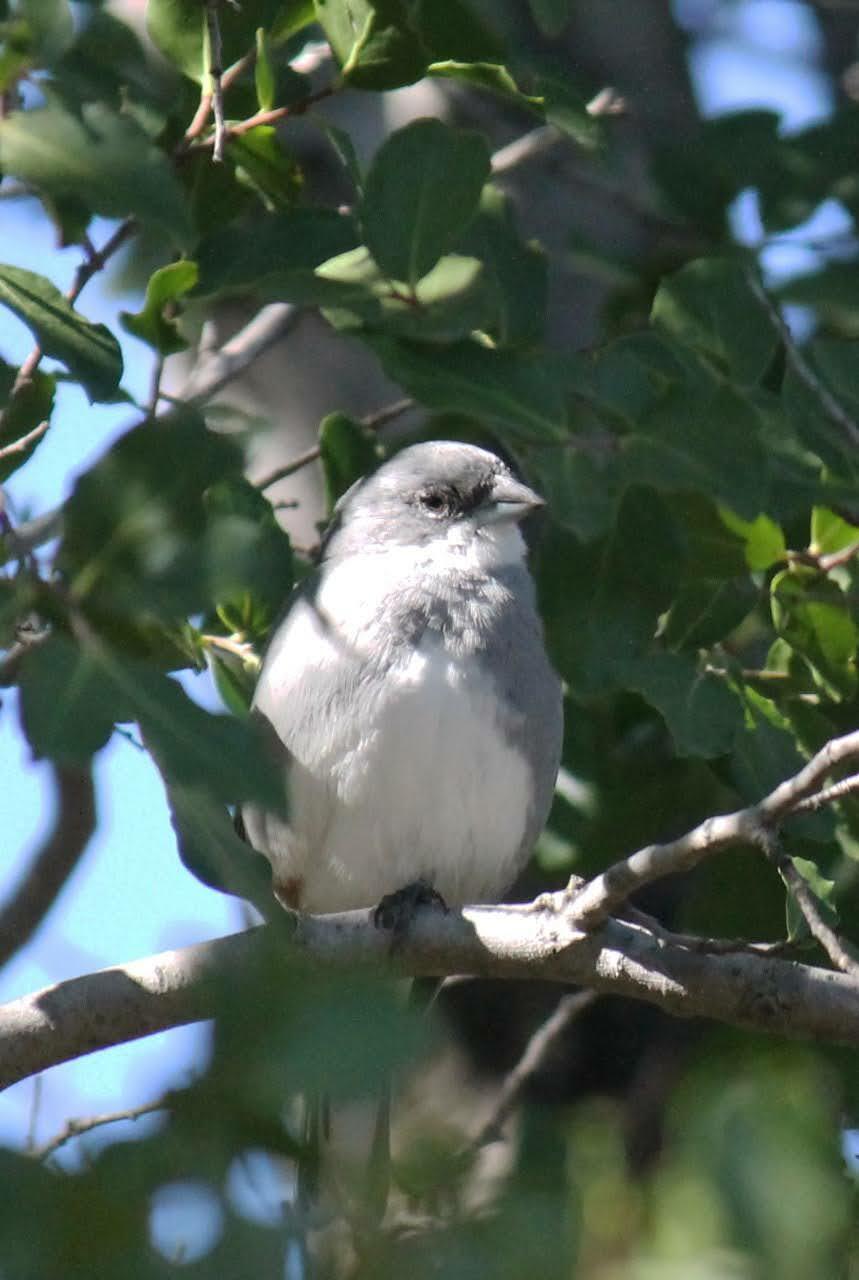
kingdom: Animalia
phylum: Chordata
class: Aves
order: Passeriformes
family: Thraupidae
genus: Diuca
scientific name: Diuca diuca
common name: Common diuca finch
